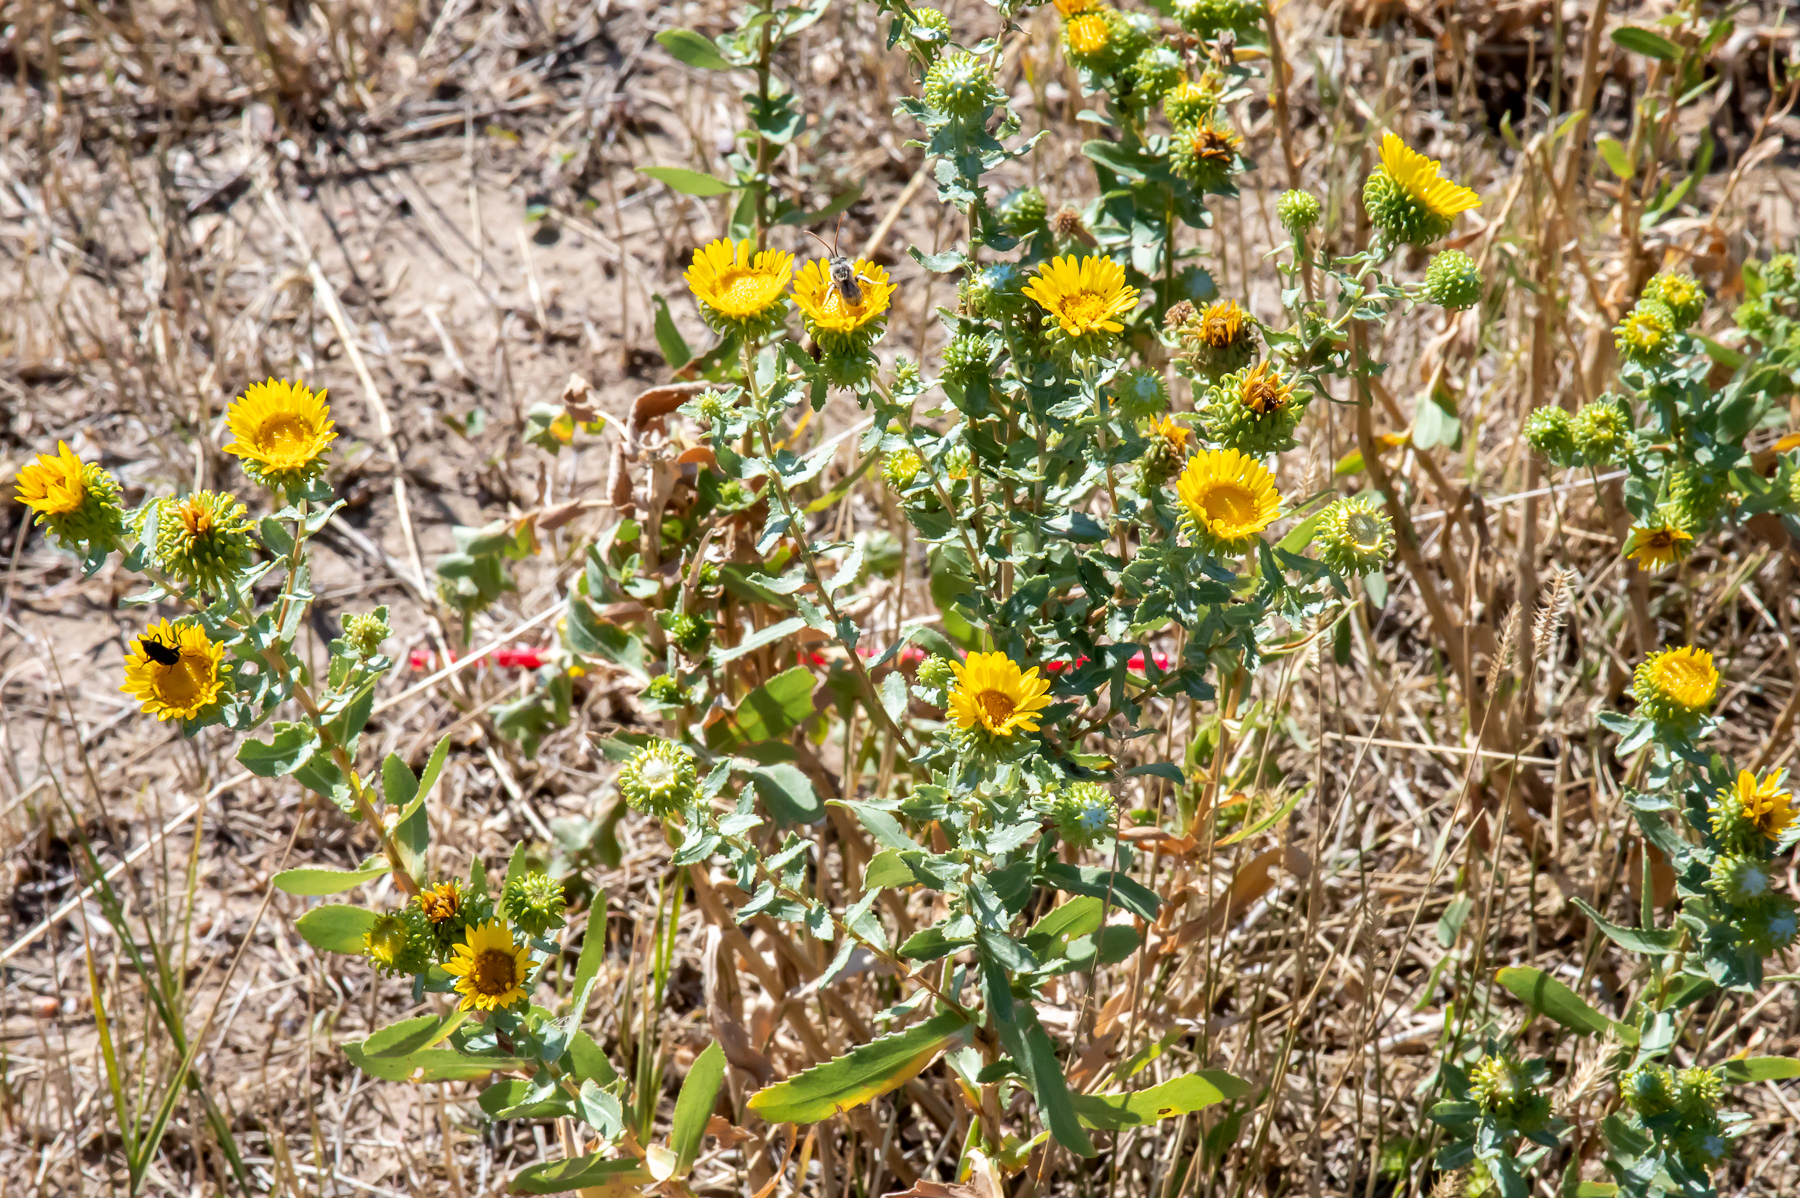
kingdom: Plantae
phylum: Tracheophyta
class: Magnoliopsida
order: Asterales
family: Asteraceae
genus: Grindelia
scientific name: Grindelia squarrosa
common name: Curly-cup gumweed
